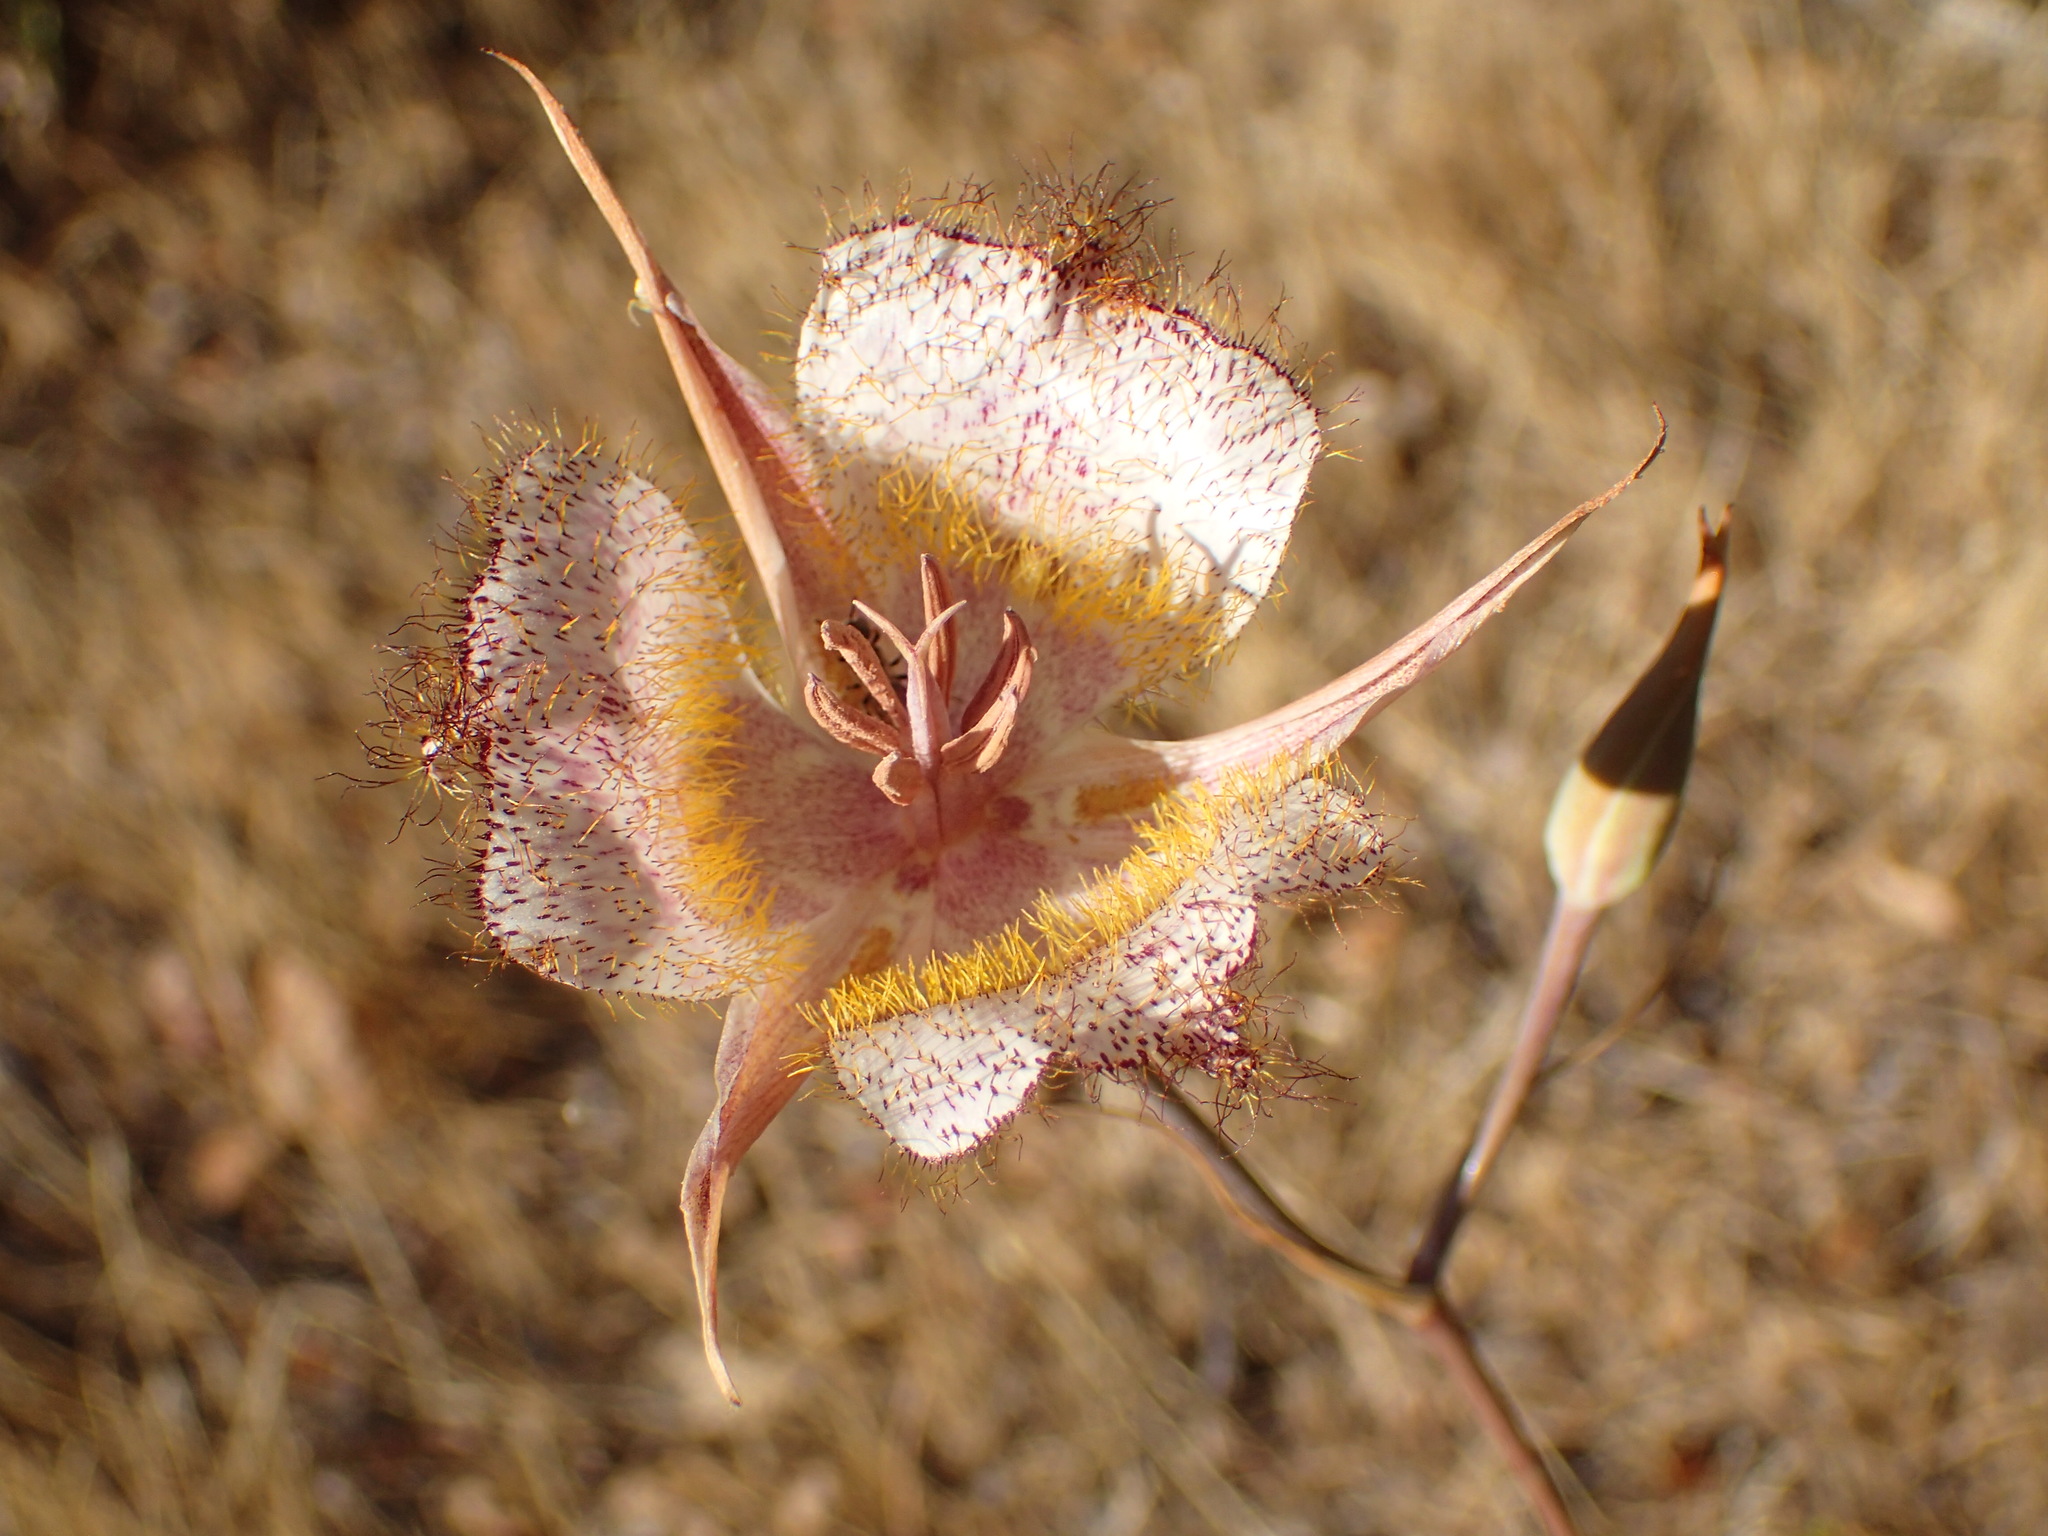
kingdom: Plantae
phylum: Tracheophyta
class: Liliopsida
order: Liliales
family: Liliaceae
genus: Calochortus
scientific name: Calochortus fimbriatus
